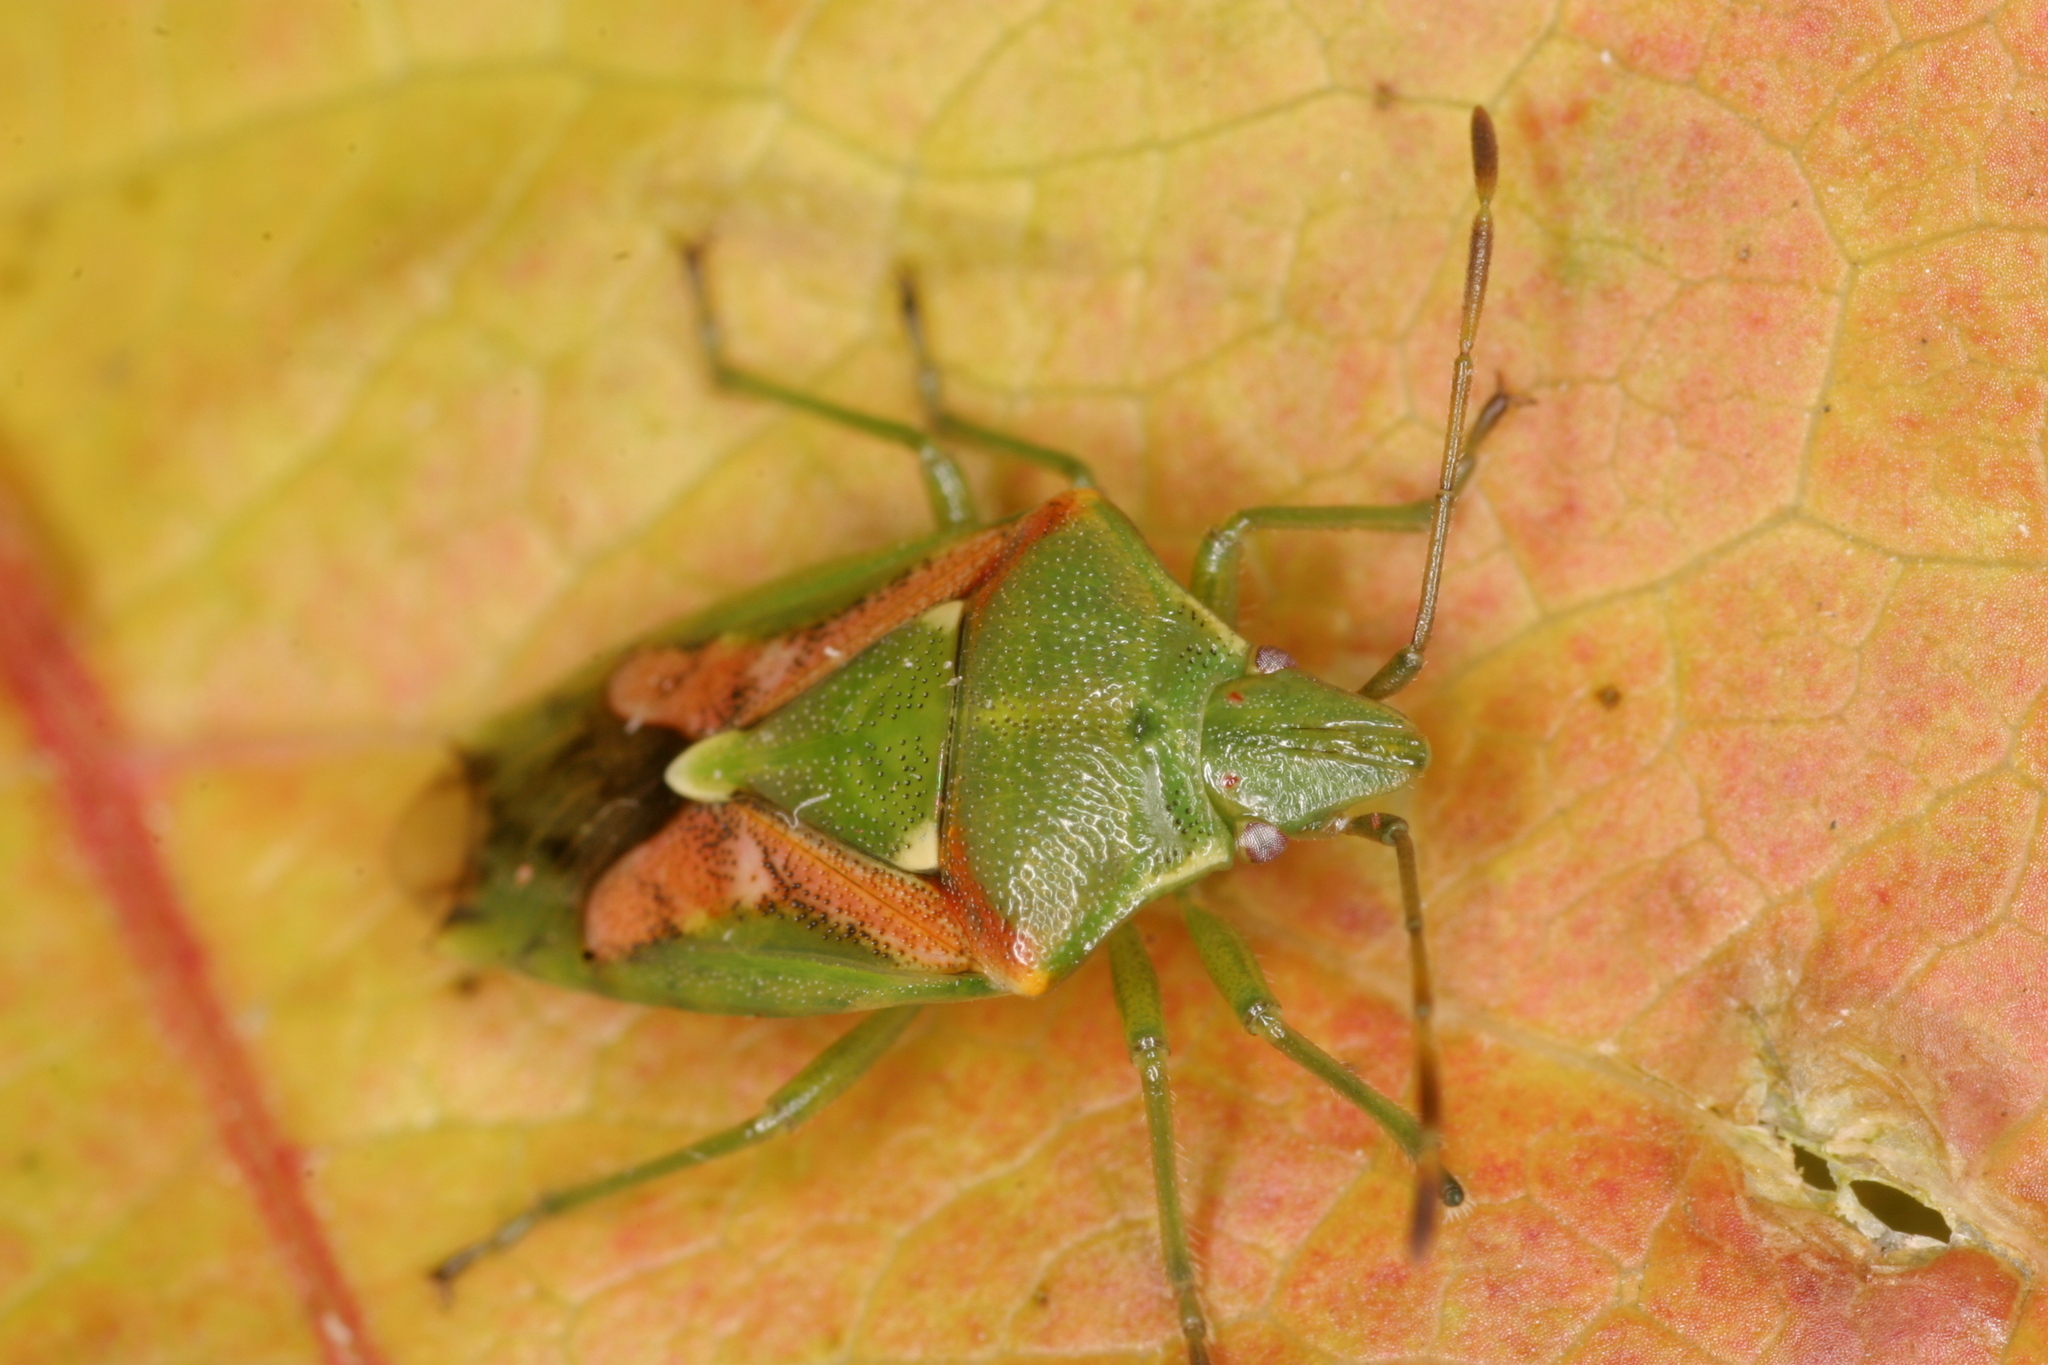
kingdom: Animalia
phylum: Arthropoda
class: Insecta
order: Hemiptera
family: Acanthosomatidae
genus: Cyphostethus
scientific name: Cyphostethus tristriatus
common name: Juniper shieldbug
